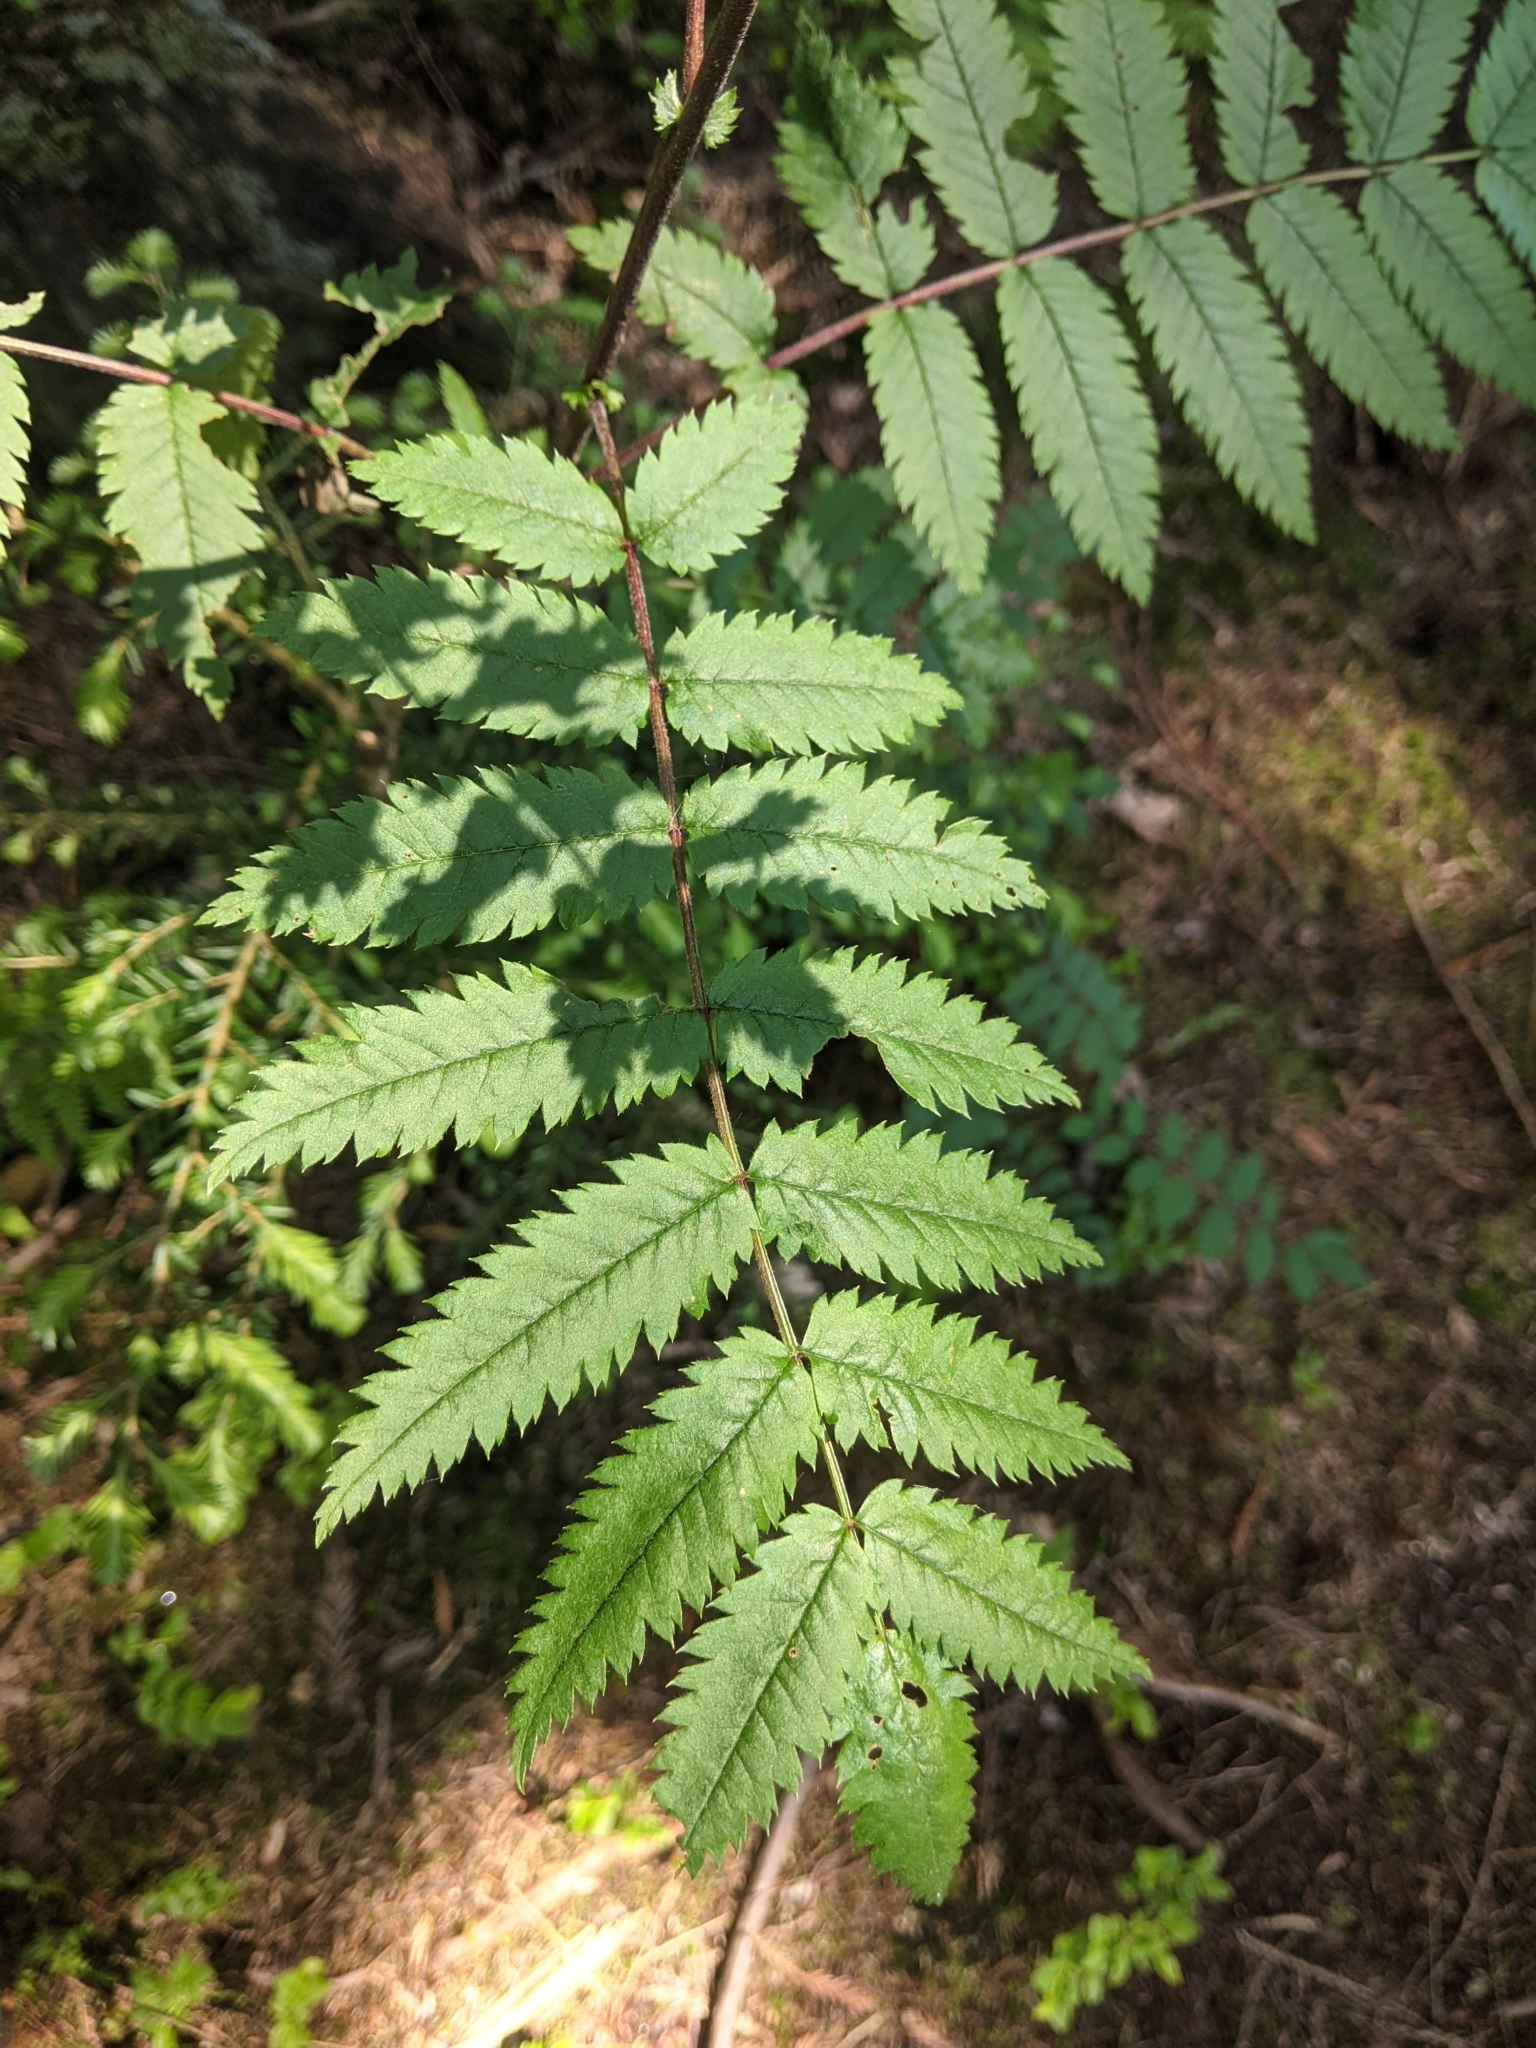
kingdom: Plantae
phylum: Tracheophyta
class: Magnoliopsida
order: Rosales
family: Rosaceae
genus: Sorbus
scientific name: Sorbus aucuparia
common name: Rowan
